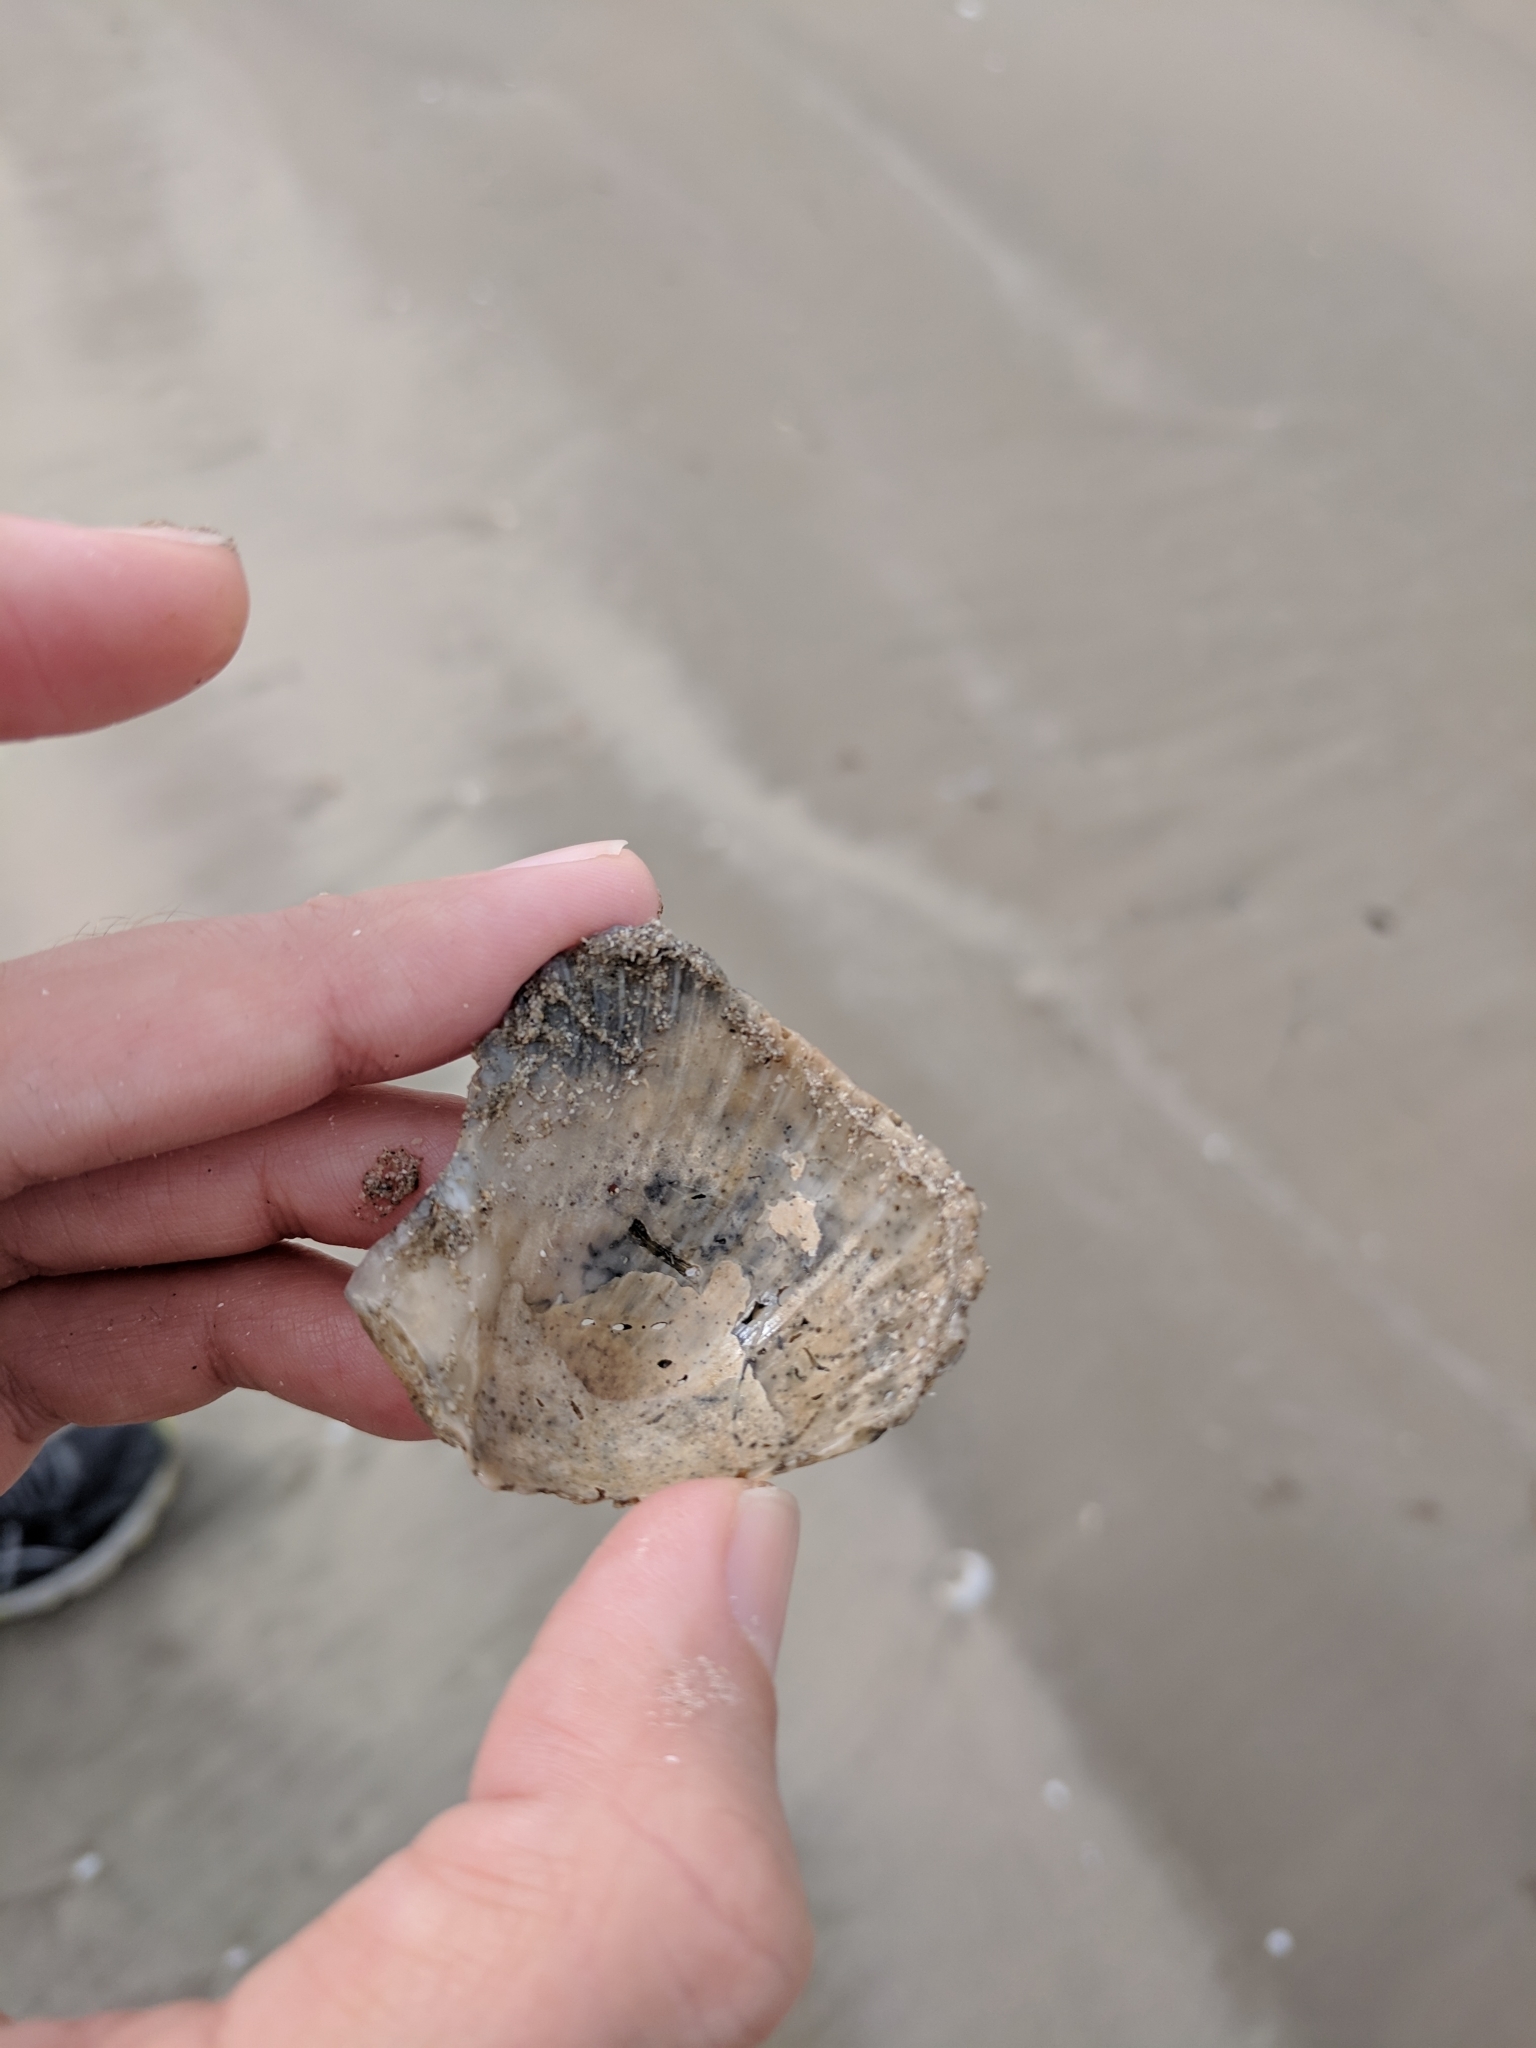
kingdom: Animalia
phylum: Mollusca
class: Bivalvia
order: Pectinida
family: Pectinidae
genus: Argopecten
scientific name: Argopecten irradians
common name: Atlantic bay scallop
